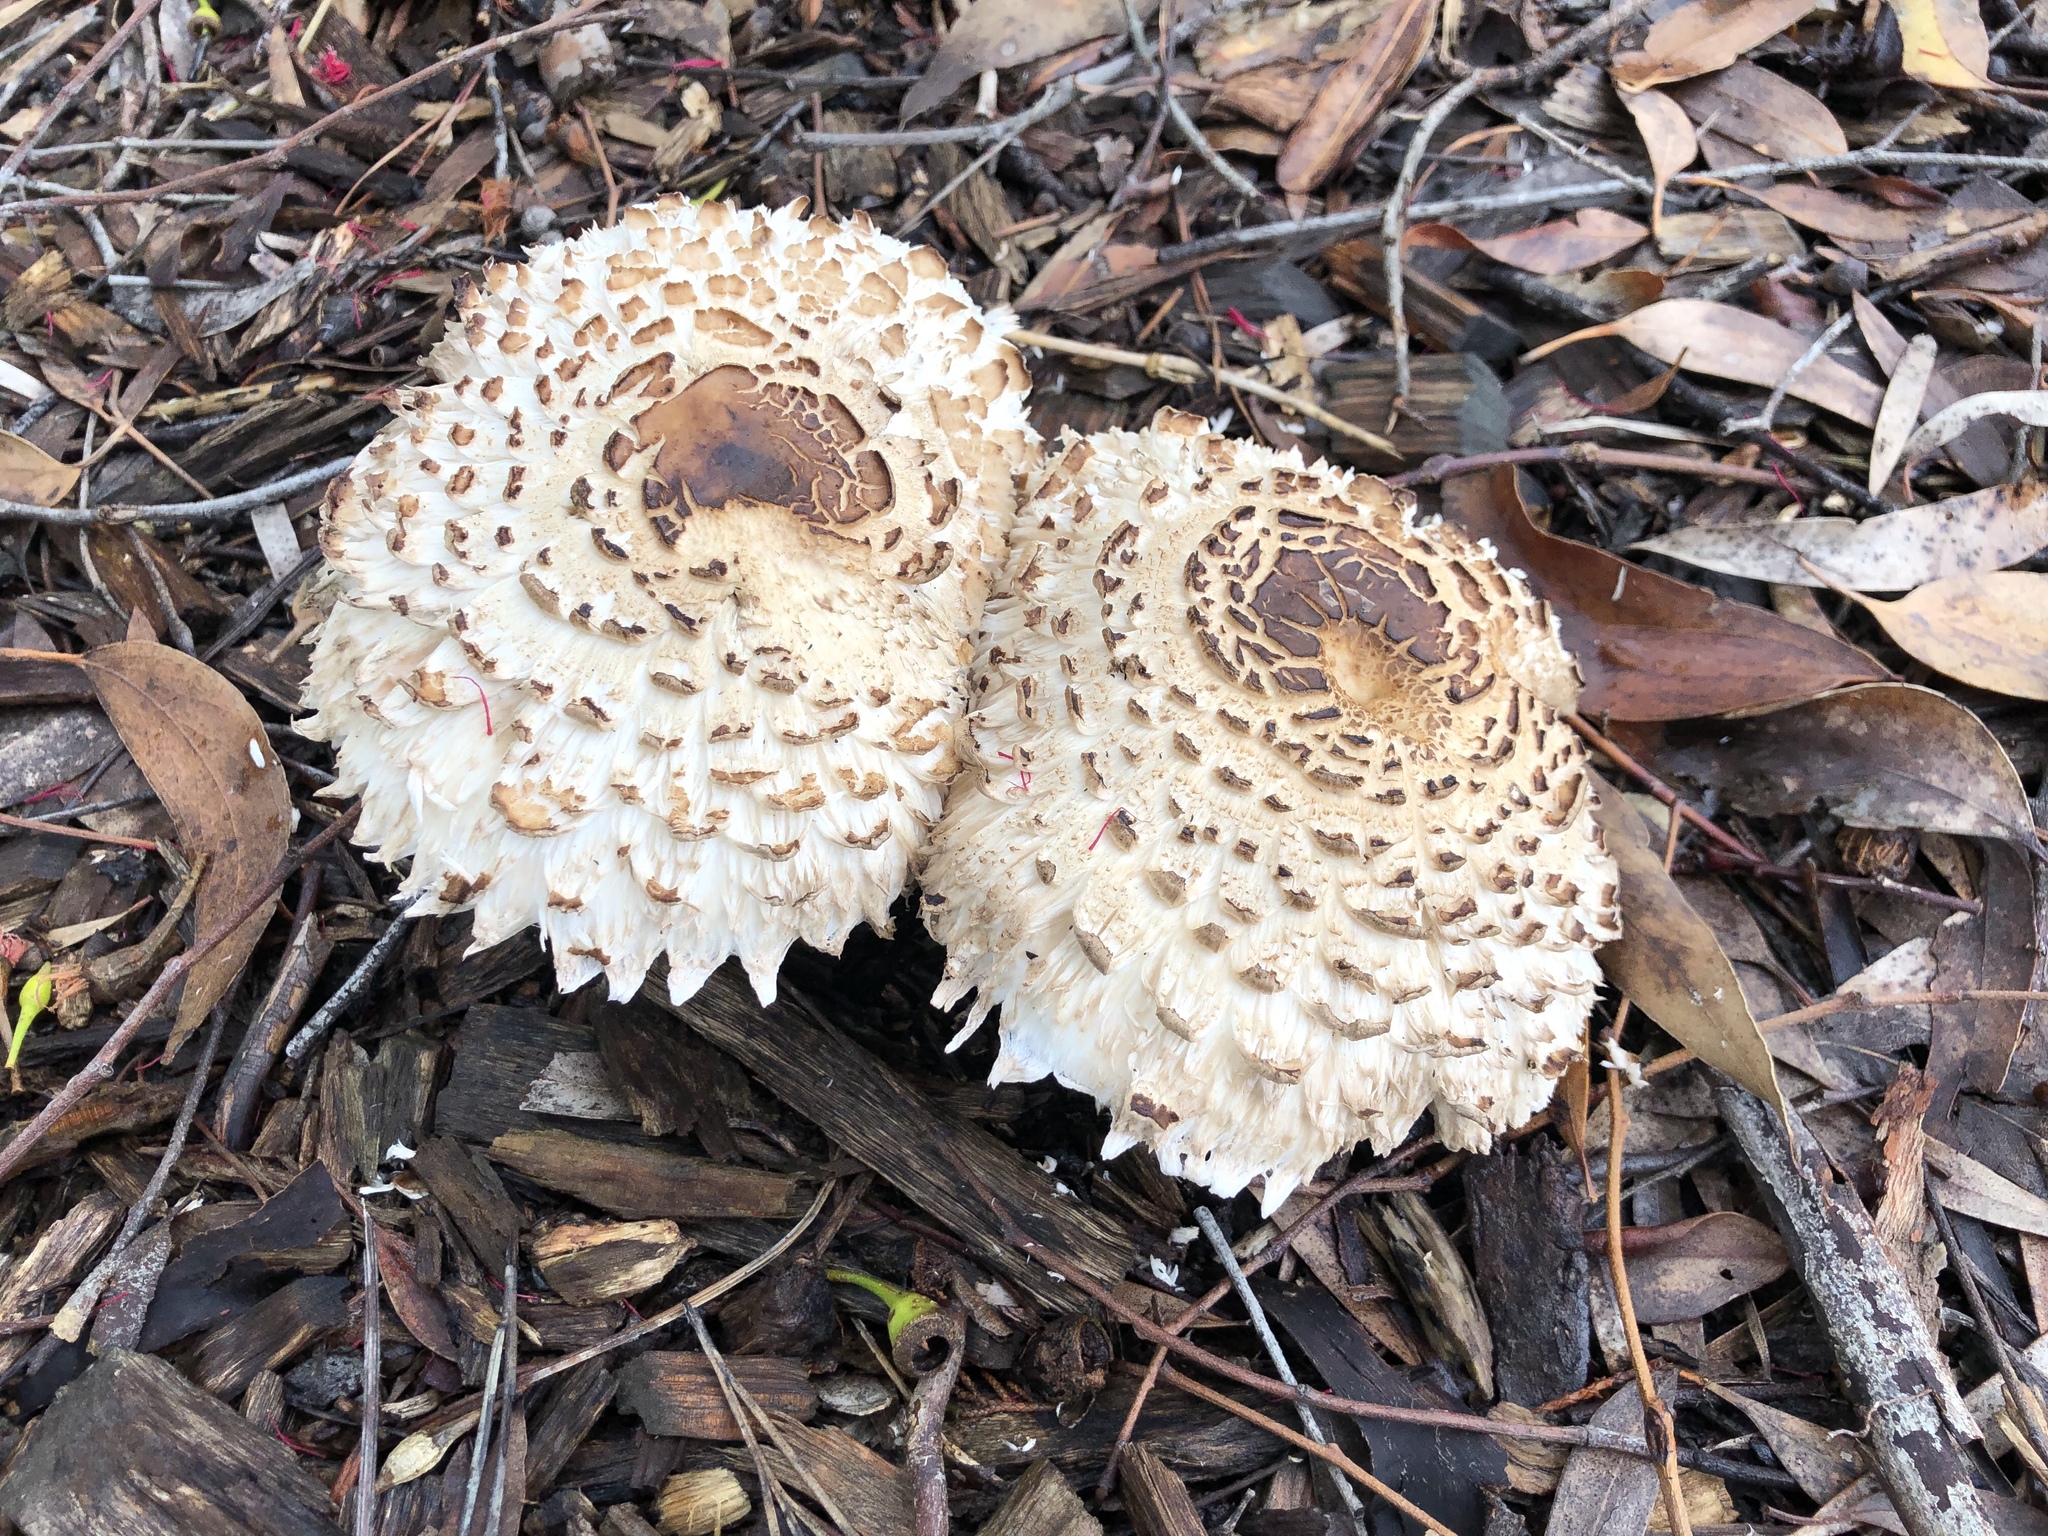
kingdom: Fungi
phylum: Basidiomycota
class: Agaricomycetes
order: Agaricales
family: Agaricaceae
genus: Chlorophyllum
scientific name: Chlorophyllum brunneum
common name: Brown parasol
